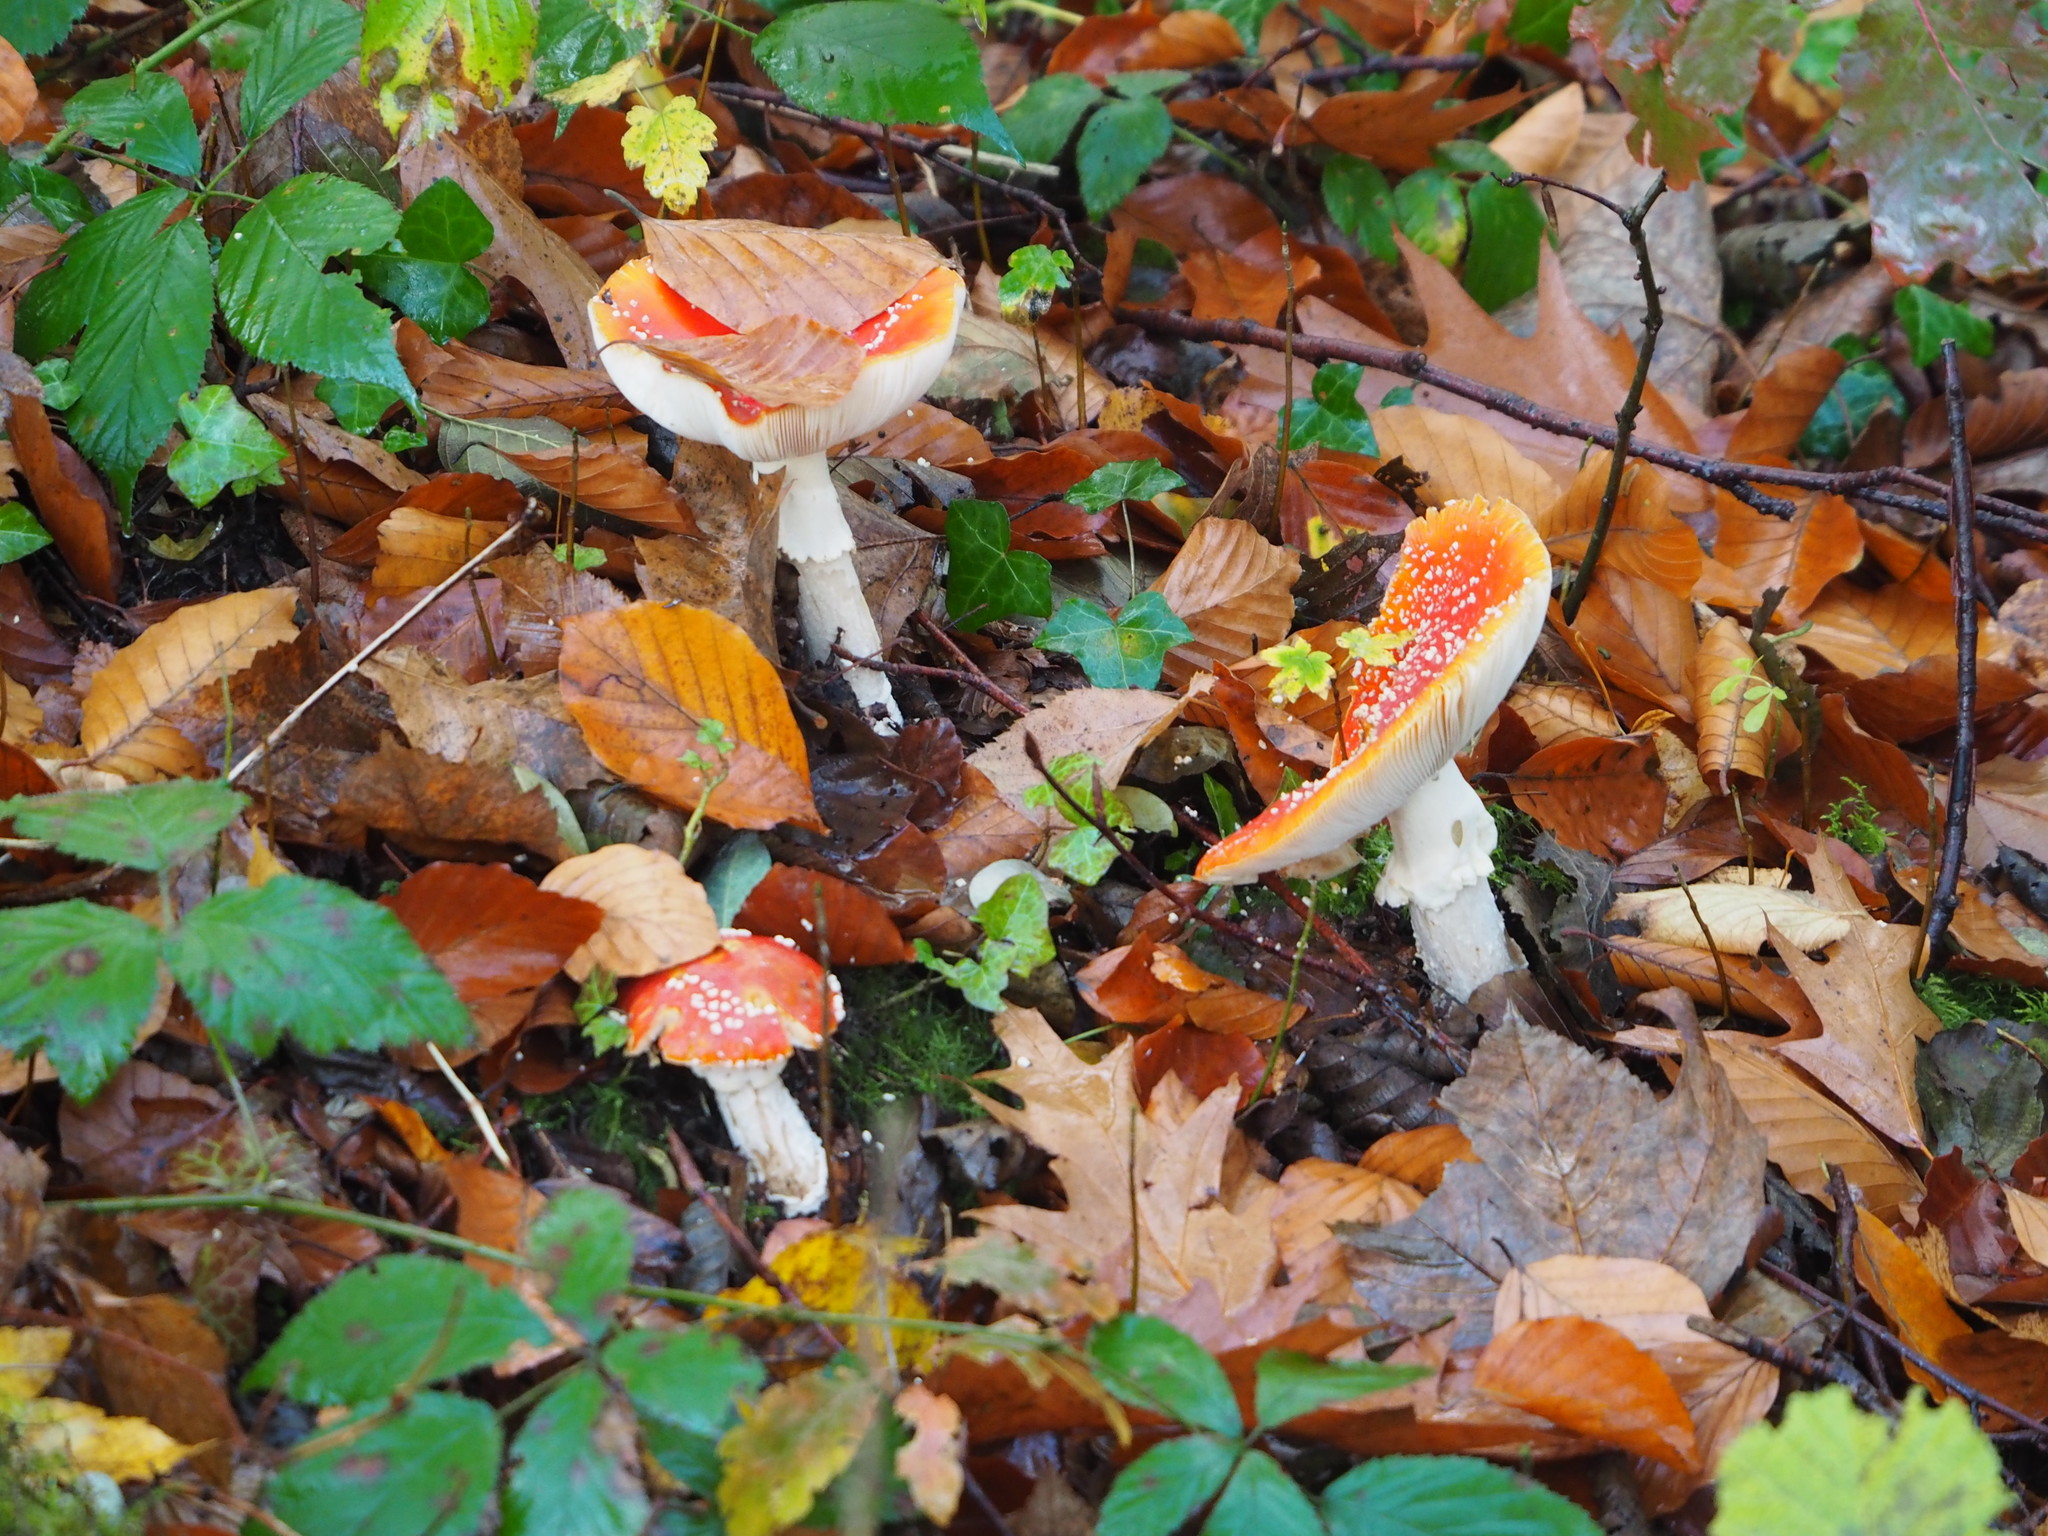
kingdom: Fungi
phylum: Basidiomycota
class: Agaricomycetes
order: Agaricales
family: Amanitaceae
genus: Amanita
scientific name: Amanita muscaria
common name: Fly agaric
